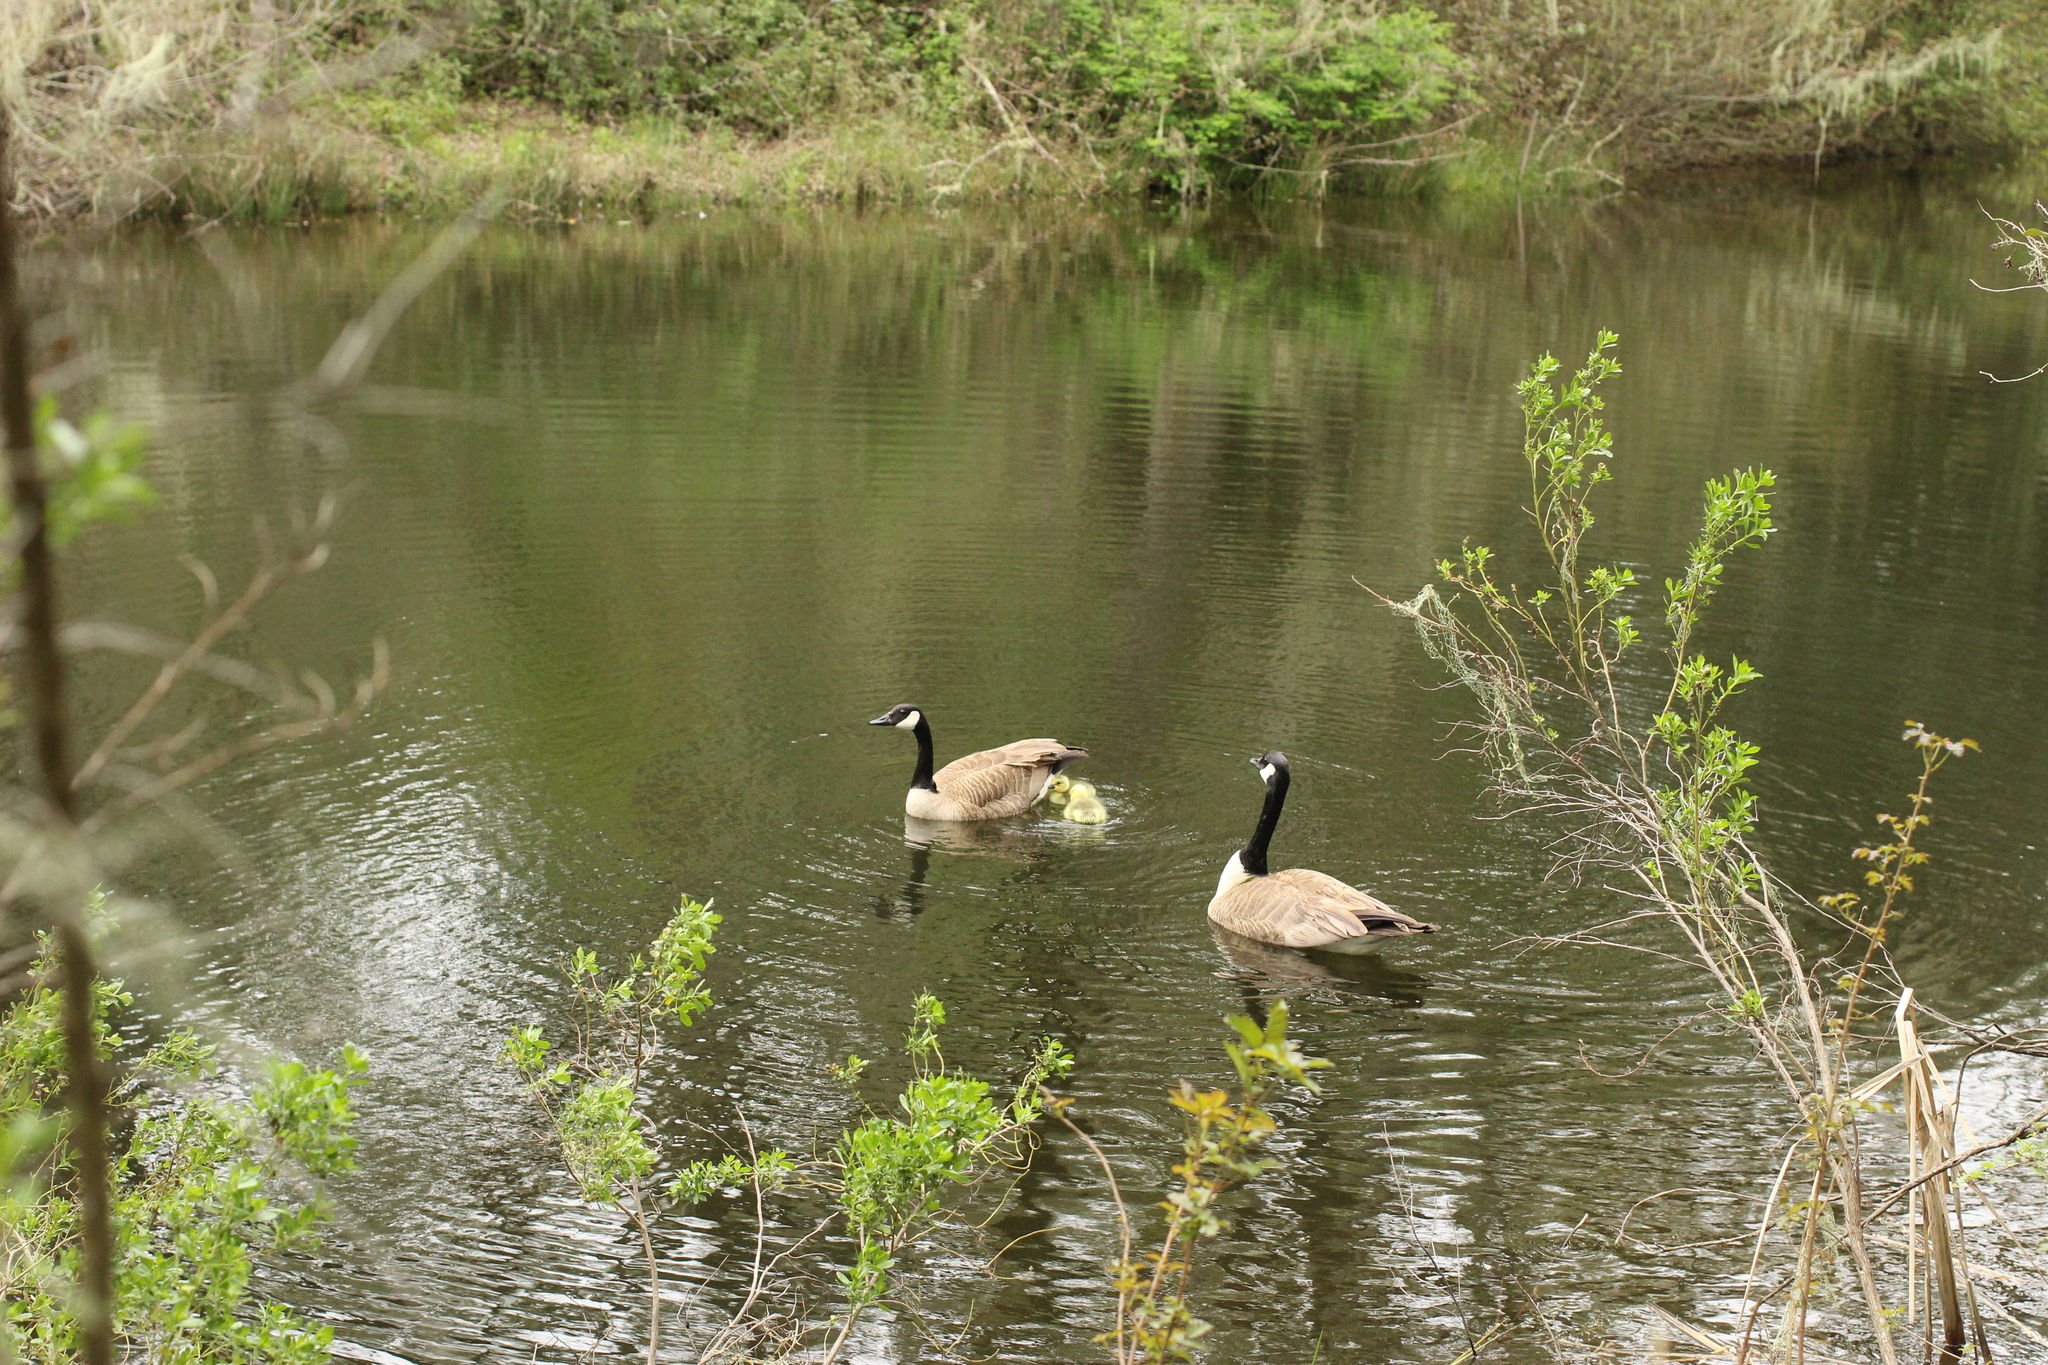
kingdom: Animalia
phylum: Chordata
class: Aves
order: Anseriformes
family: Anatidae
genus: Branta
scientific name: Branta canadensis
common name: Canada goose
